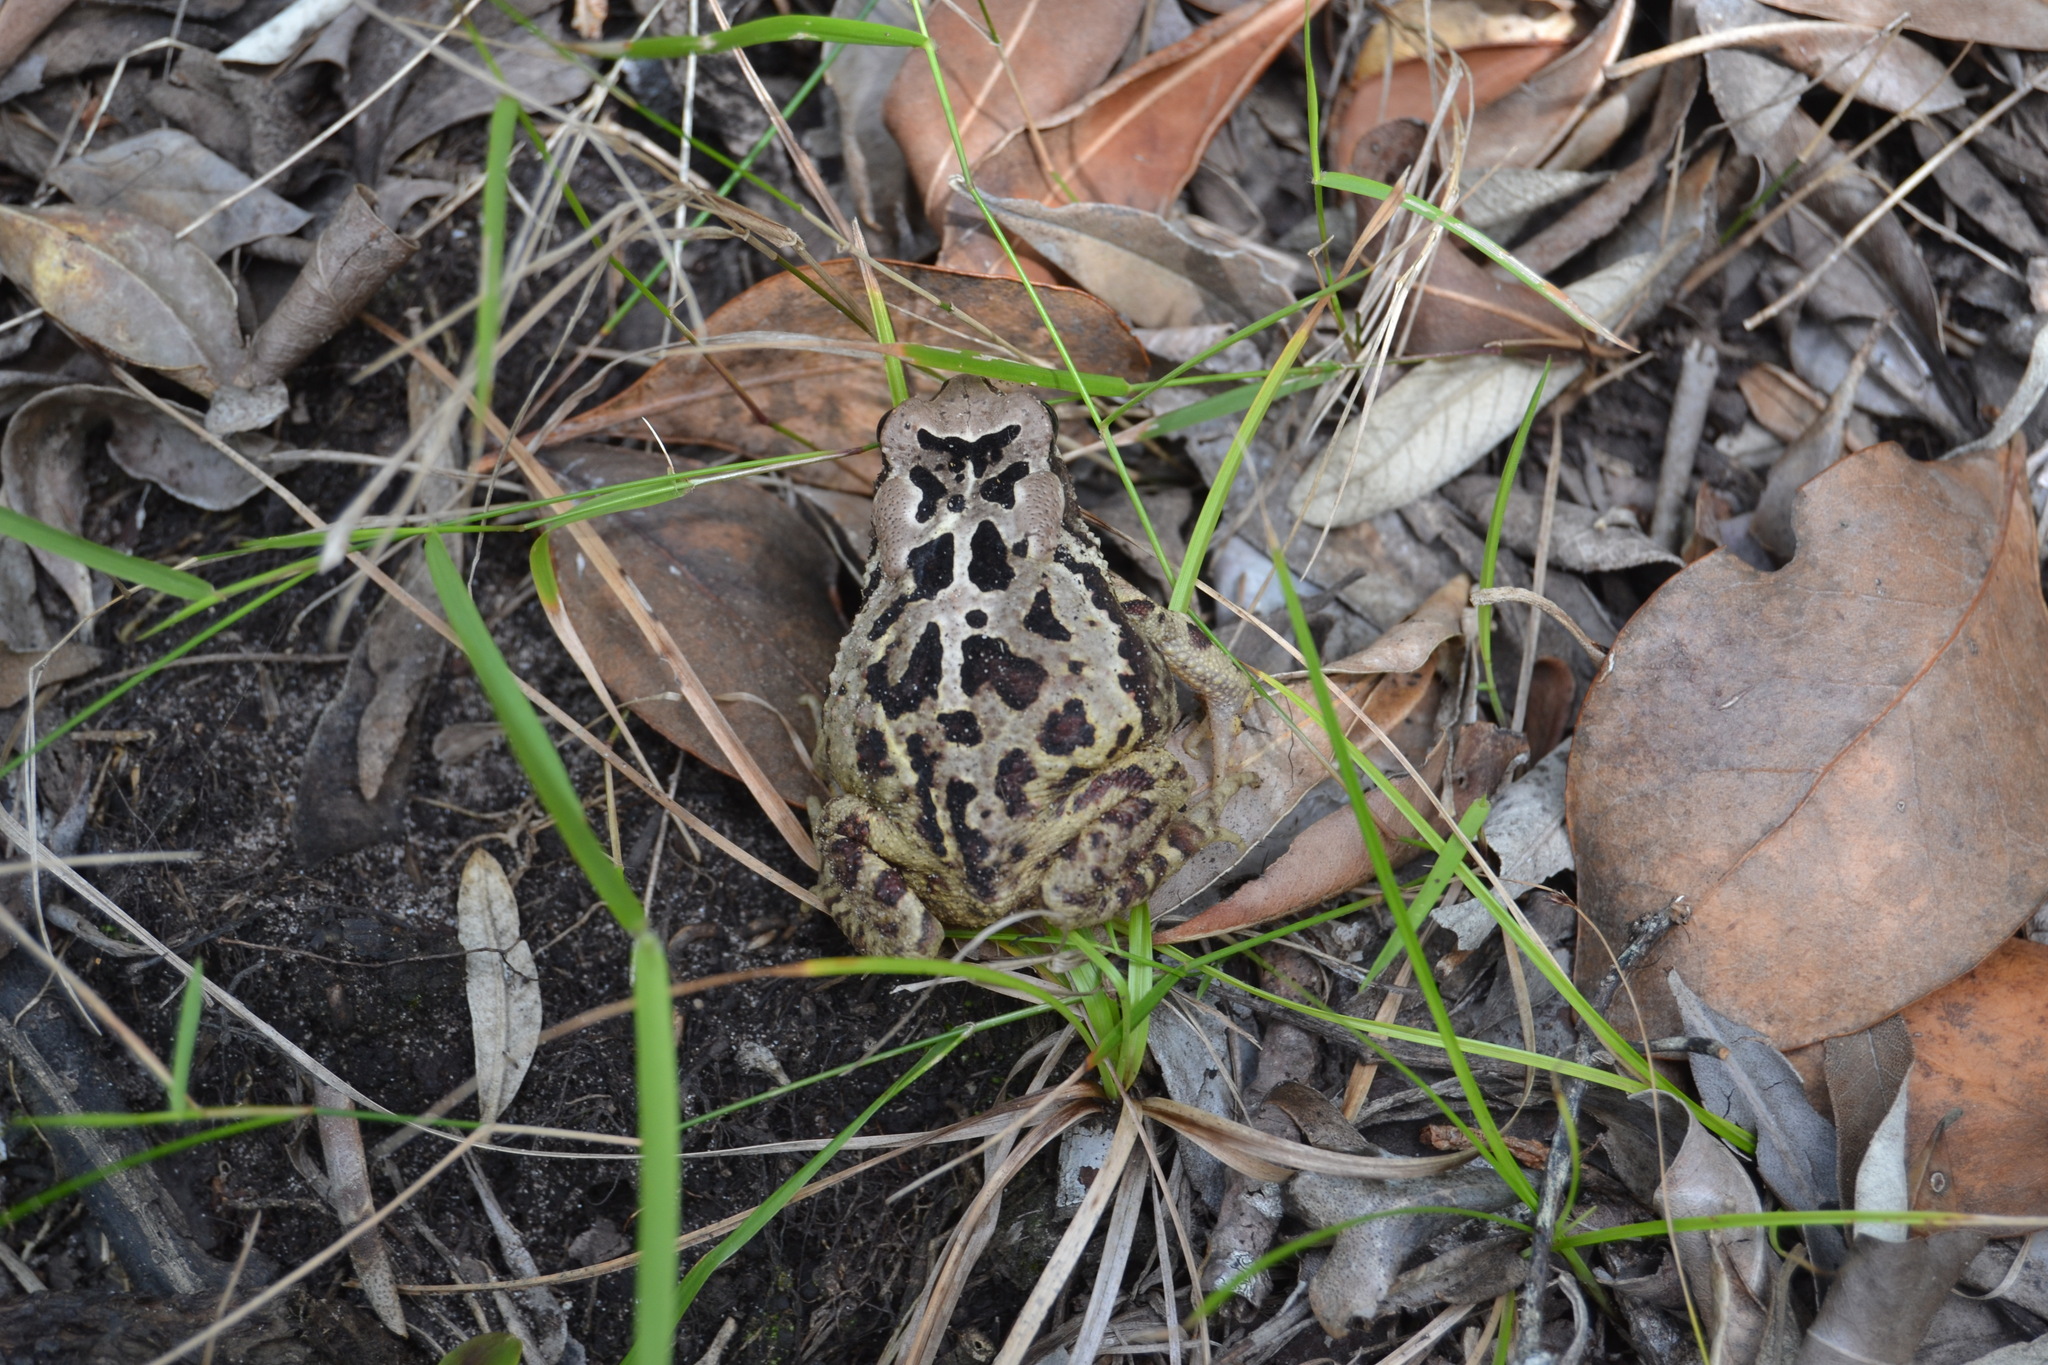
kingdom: Animalia
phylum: Chordata
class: Amphibia
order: Anura
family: Bufonidae
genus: Sclerophrys
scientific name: Sclerophrys pardalis
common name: Eastern leopard toad
